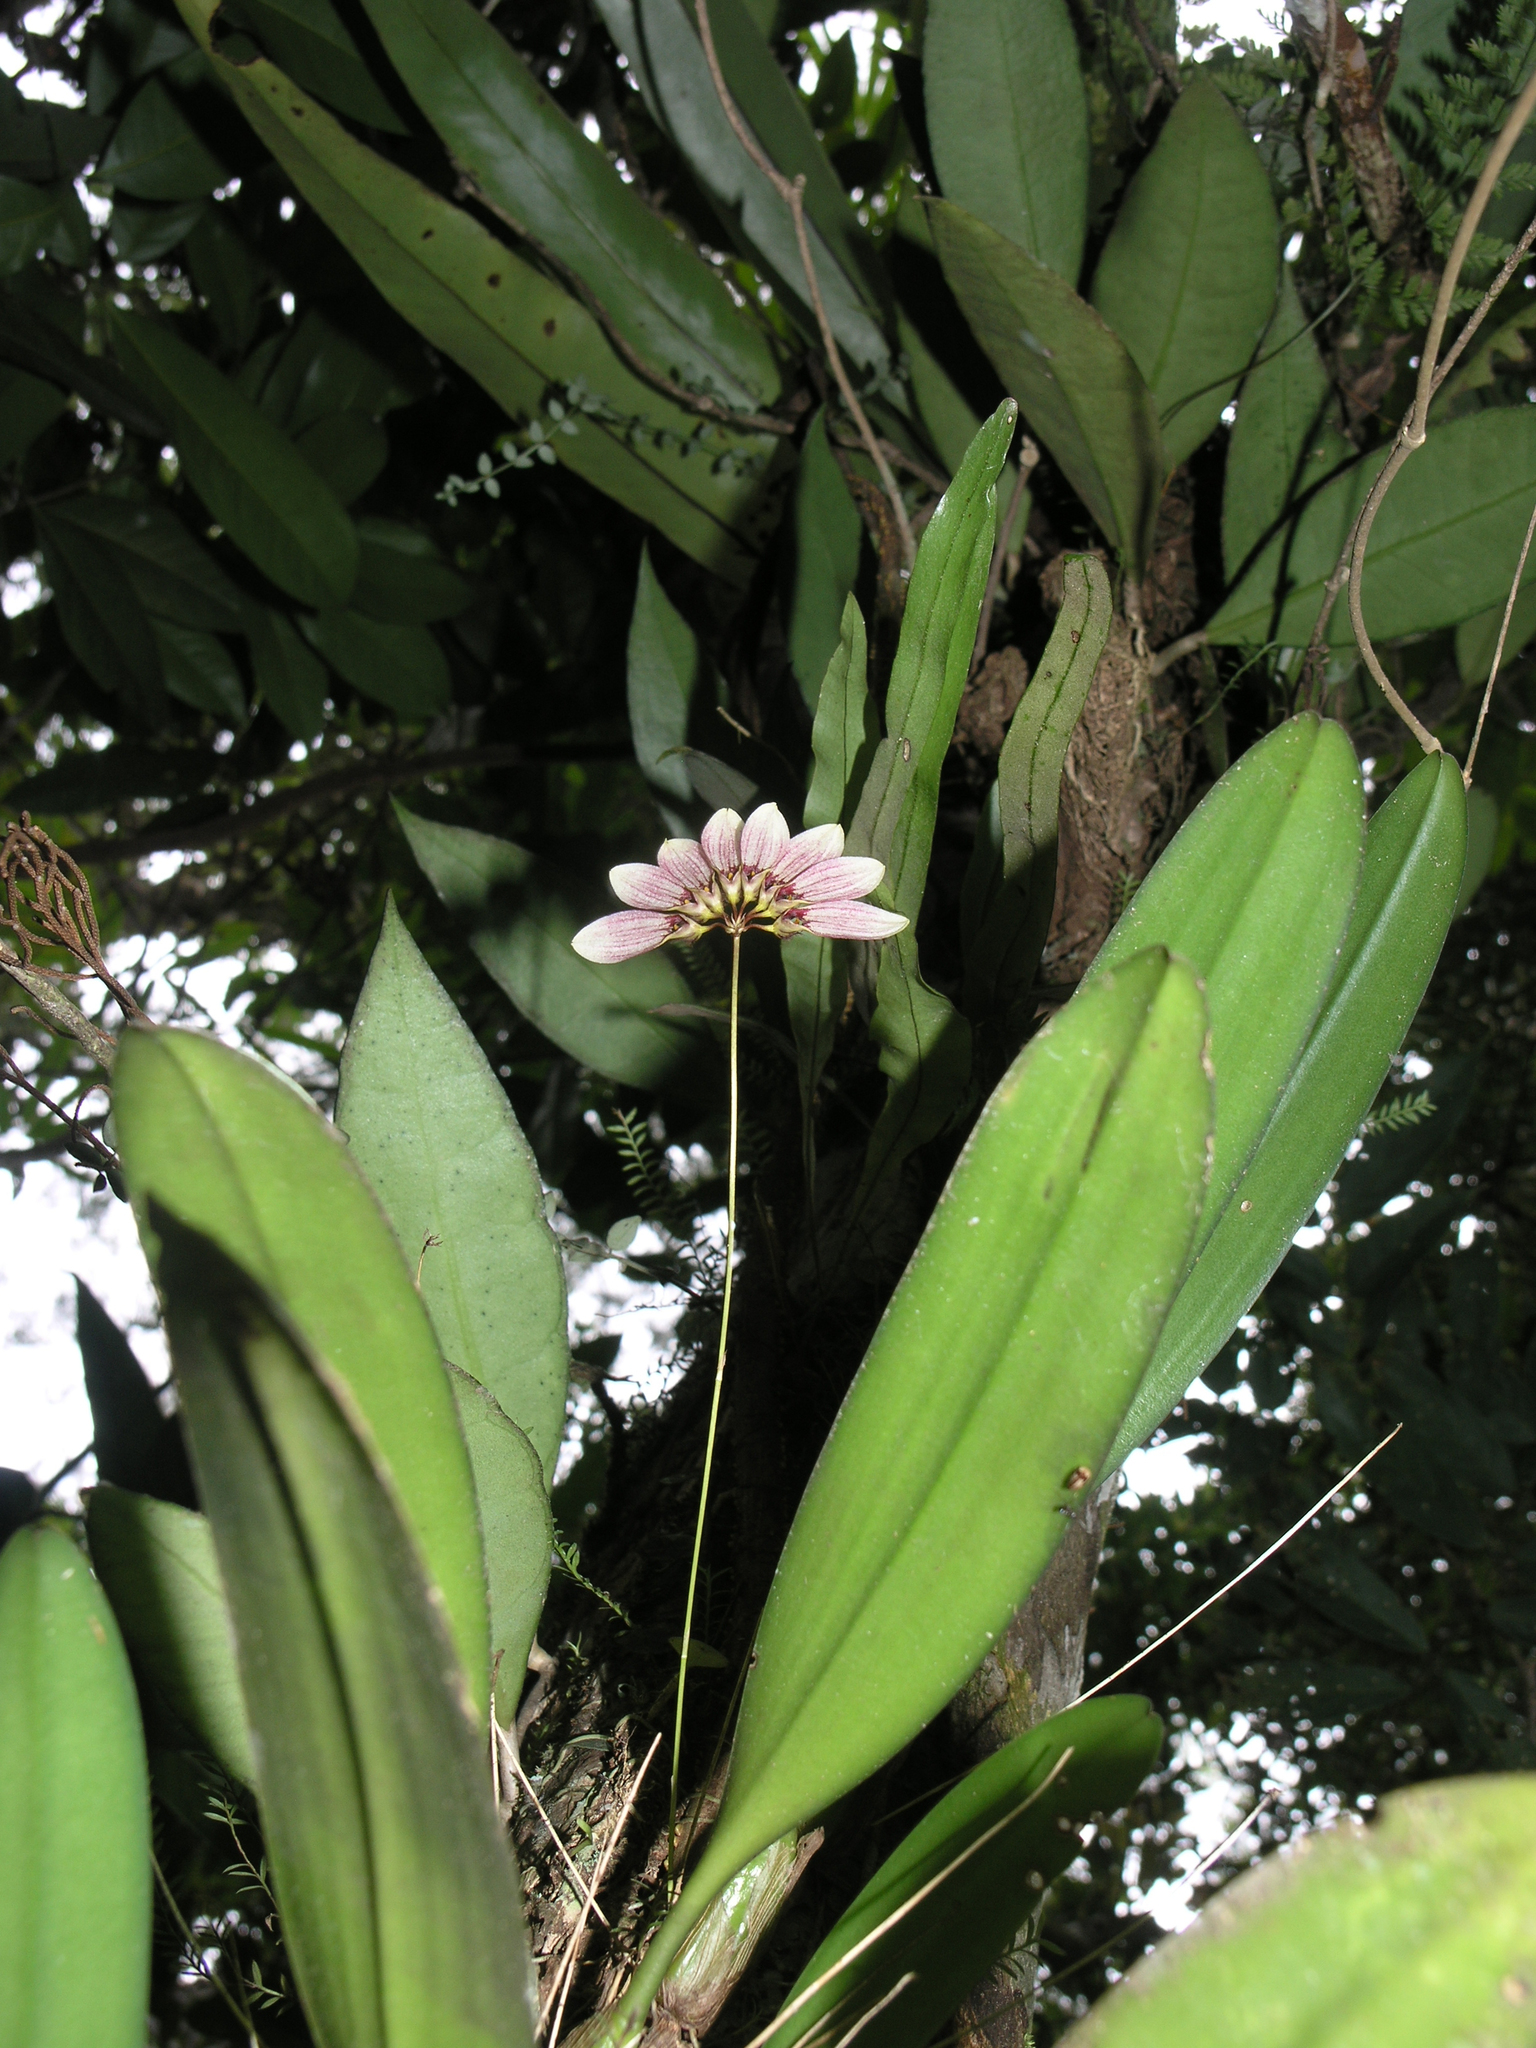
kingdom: Plantae
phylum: Tracheophyta
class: Liliopsida
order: Asparagales
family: Orchidaceae
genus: Bulbophyllum
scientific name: Bulbophyllum lepidum
